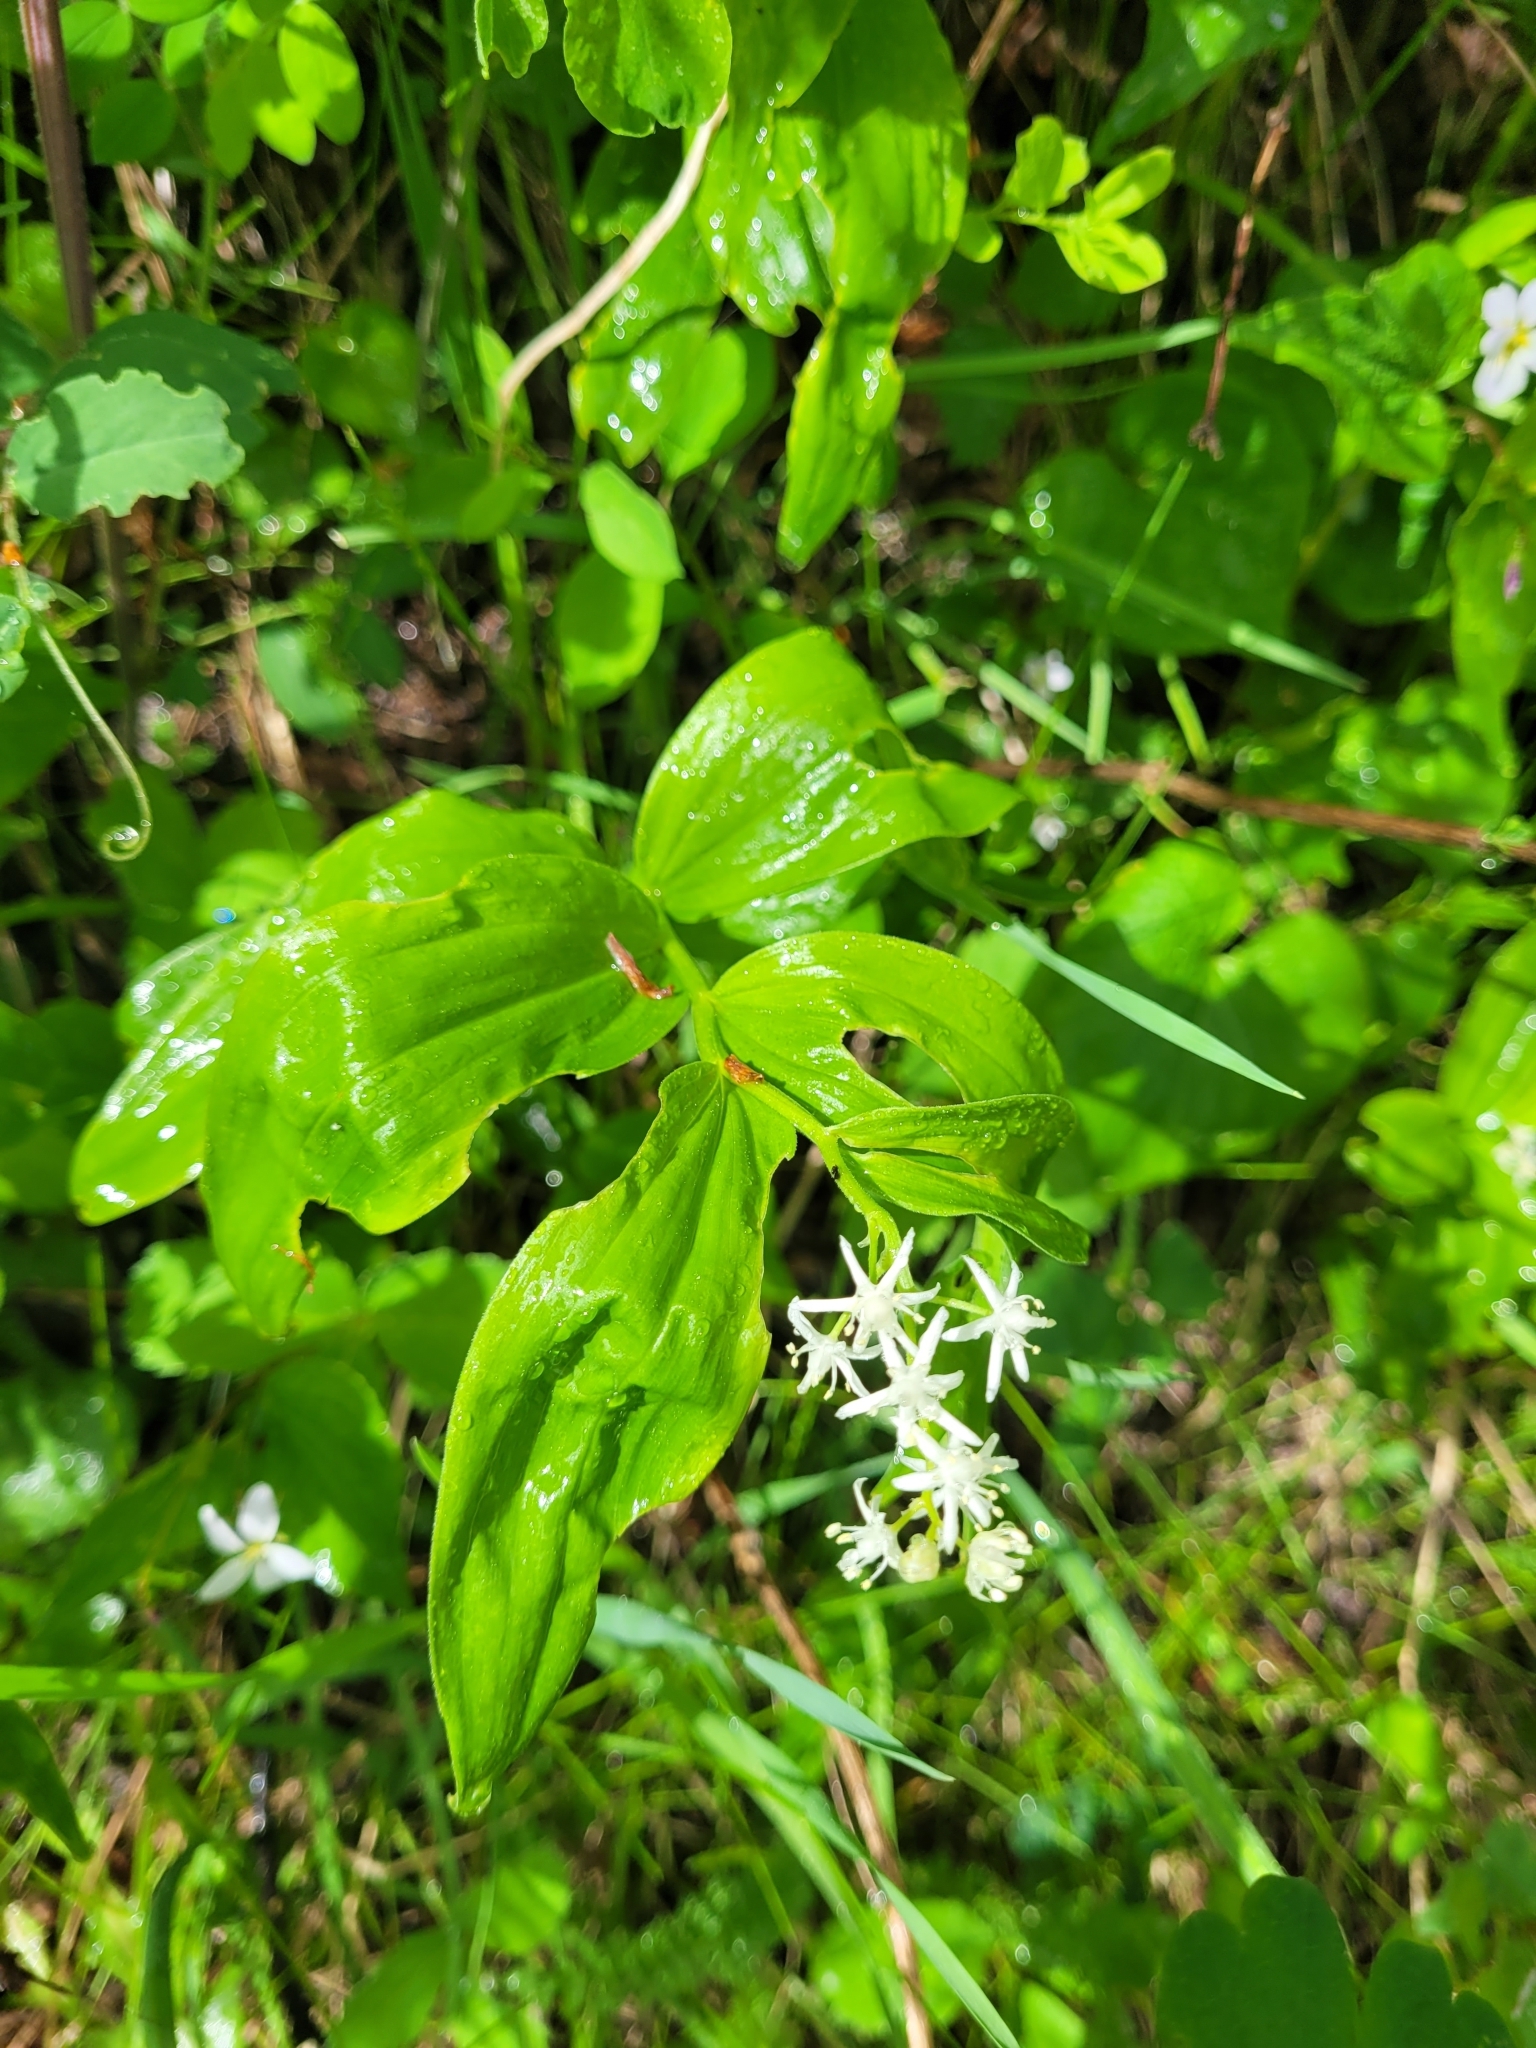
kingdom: Plantae
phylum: Tracheophyta
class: Liliopsida
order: Asparagales
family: Asparagaceae
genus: Maianthemum
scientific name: Maianthemum stellatum
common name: Little false solomon's seal
